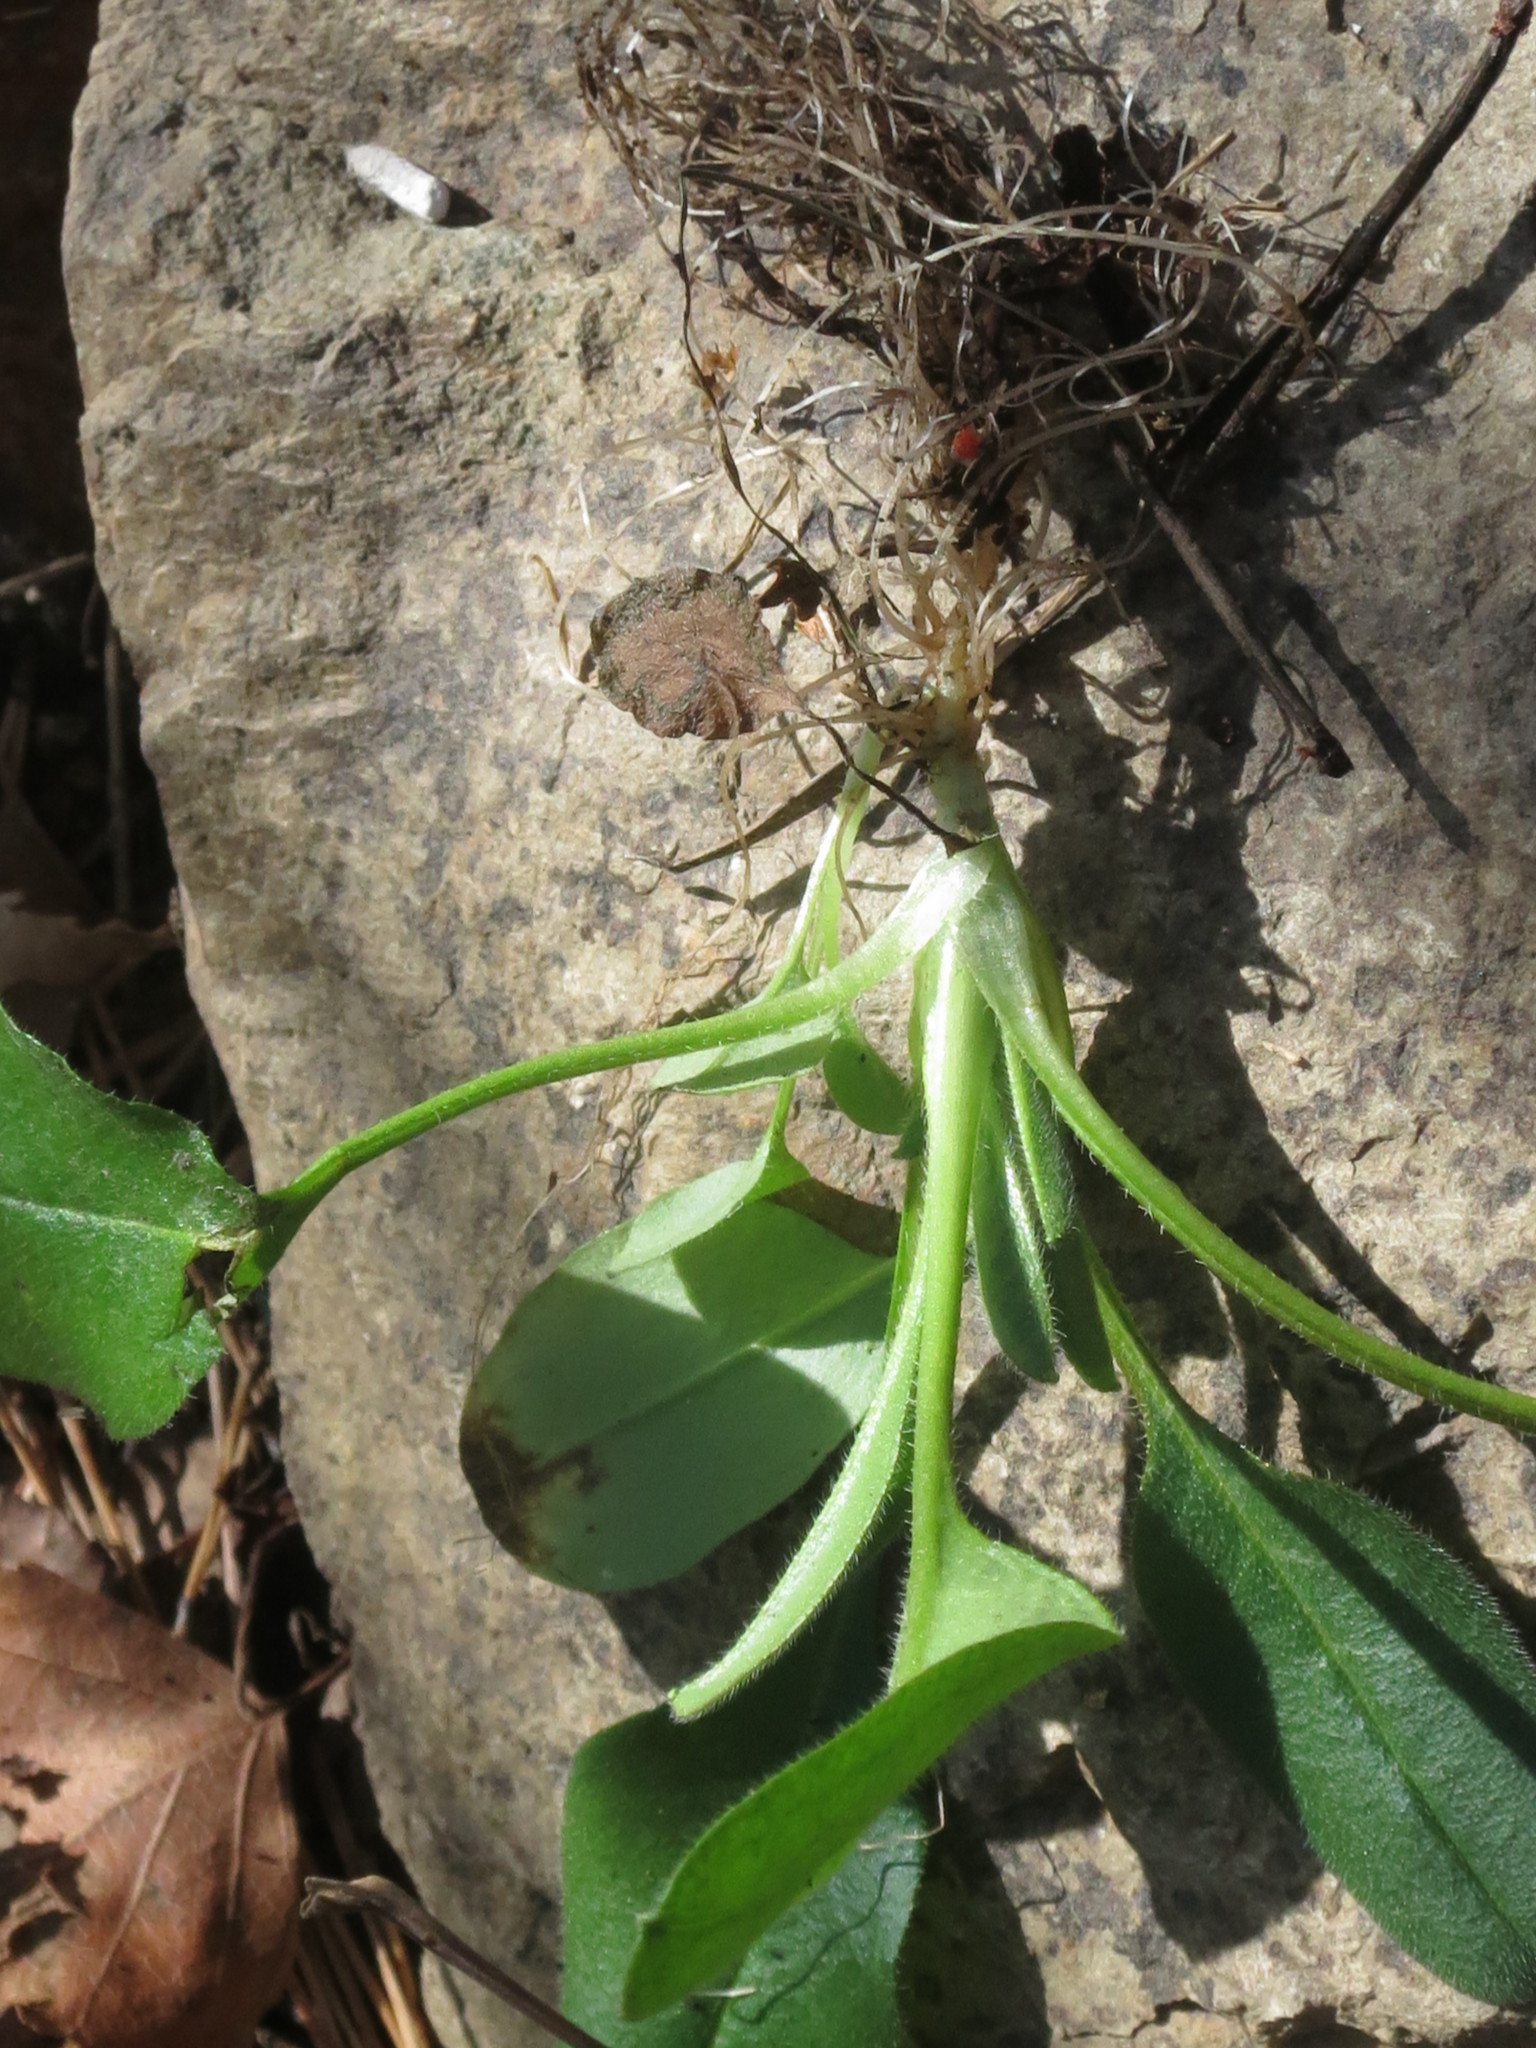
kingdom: Plantae
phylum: Tracheophyta
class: Magnoliopsida
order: Boraginales
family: Boraginaceae
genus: Myosotis
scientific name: Myosotis sparsiflora
